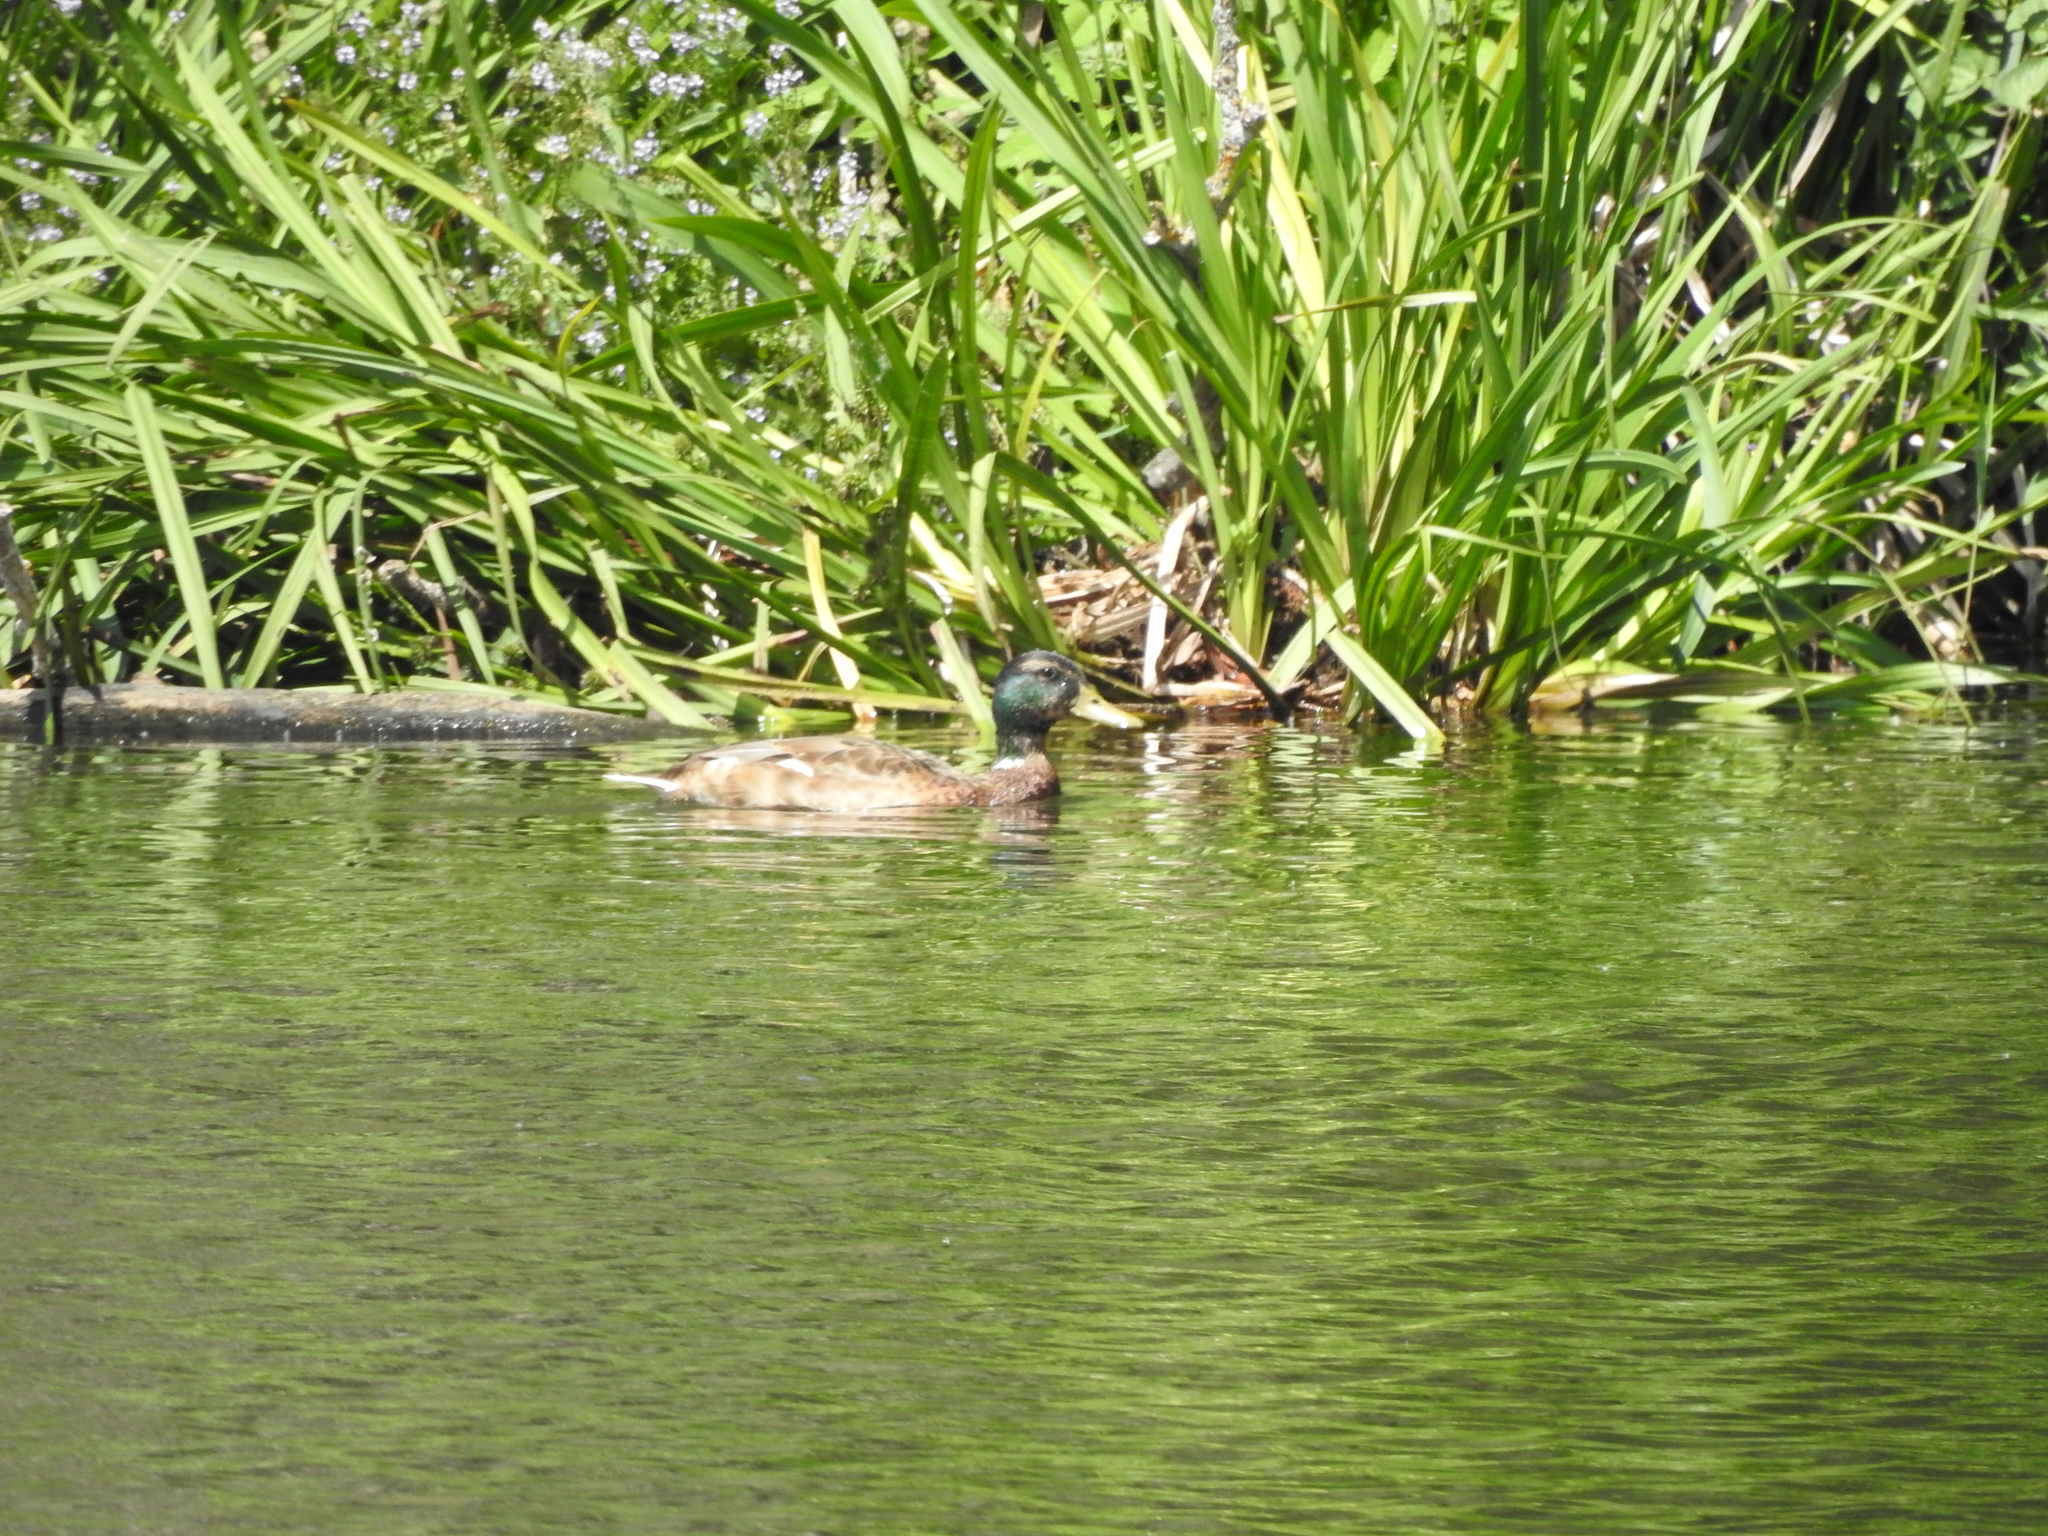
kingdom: Animalia
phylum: Chordata
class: Aves
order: Anseriformes
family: Anatidae
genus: Anas
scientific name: Anas platyrhynchos
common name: Mallard
